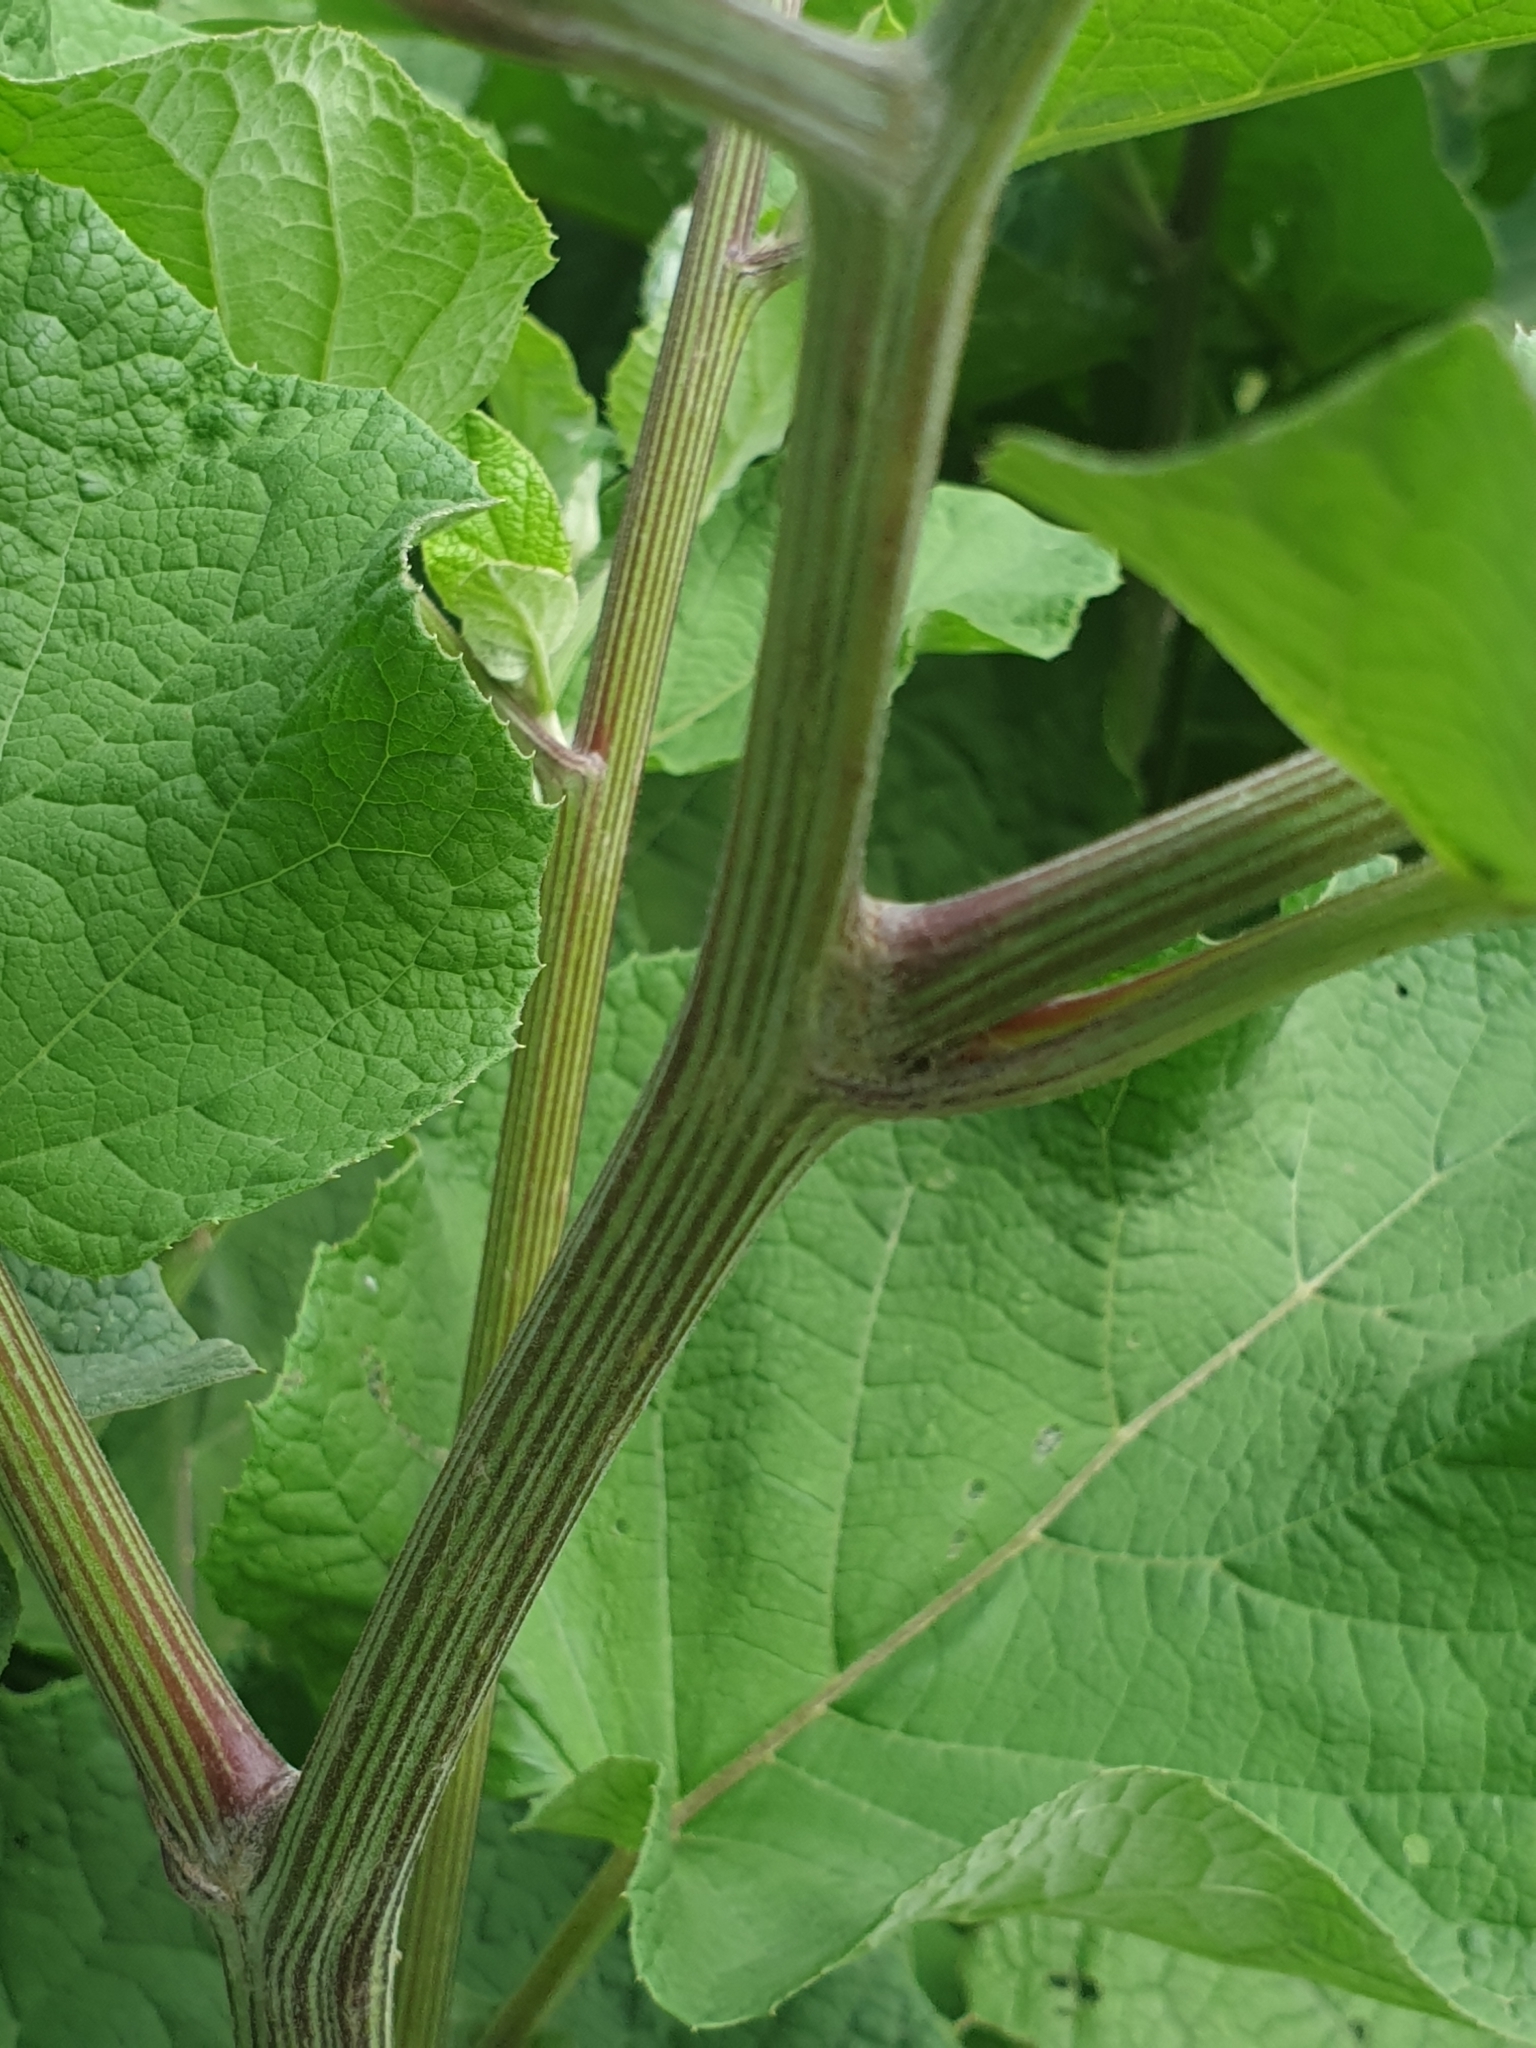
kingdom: Plantae
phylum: Tracheophyta
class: Magnoliopsida
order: Asterales
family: Asteraceae
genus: Arctium
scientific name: Arctium tomentosum
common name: Woolly burdock
